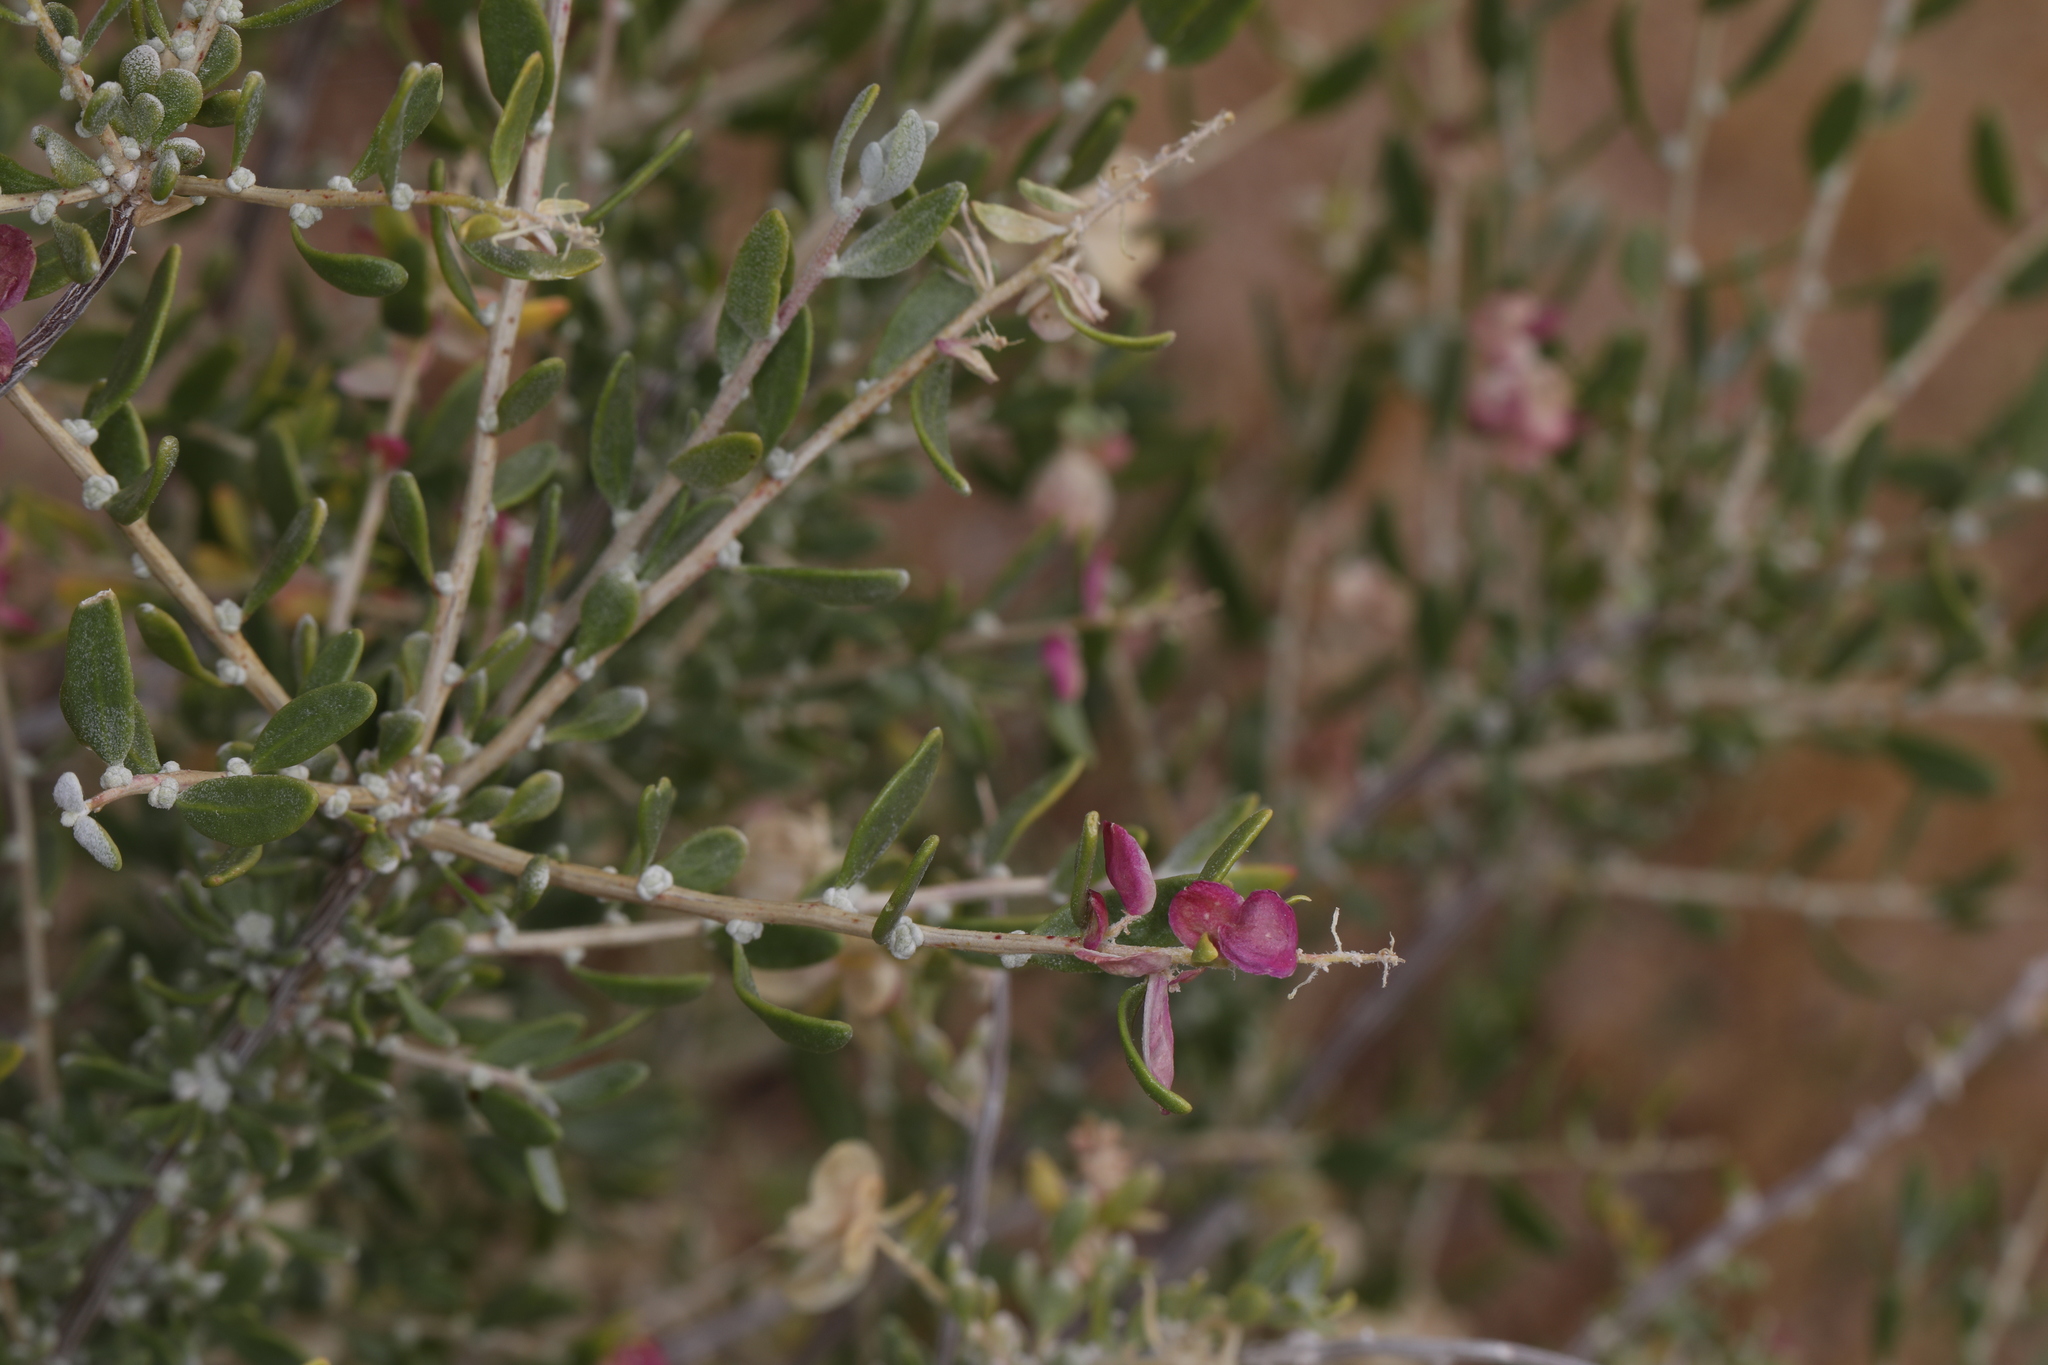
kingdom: Plantae
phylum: Tracheophyta
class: Magnoliopsida
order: Caryophyllales
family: Amaranthaceae
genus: Grayia
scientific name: Grayia spinosa
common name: Spiny hopsage
